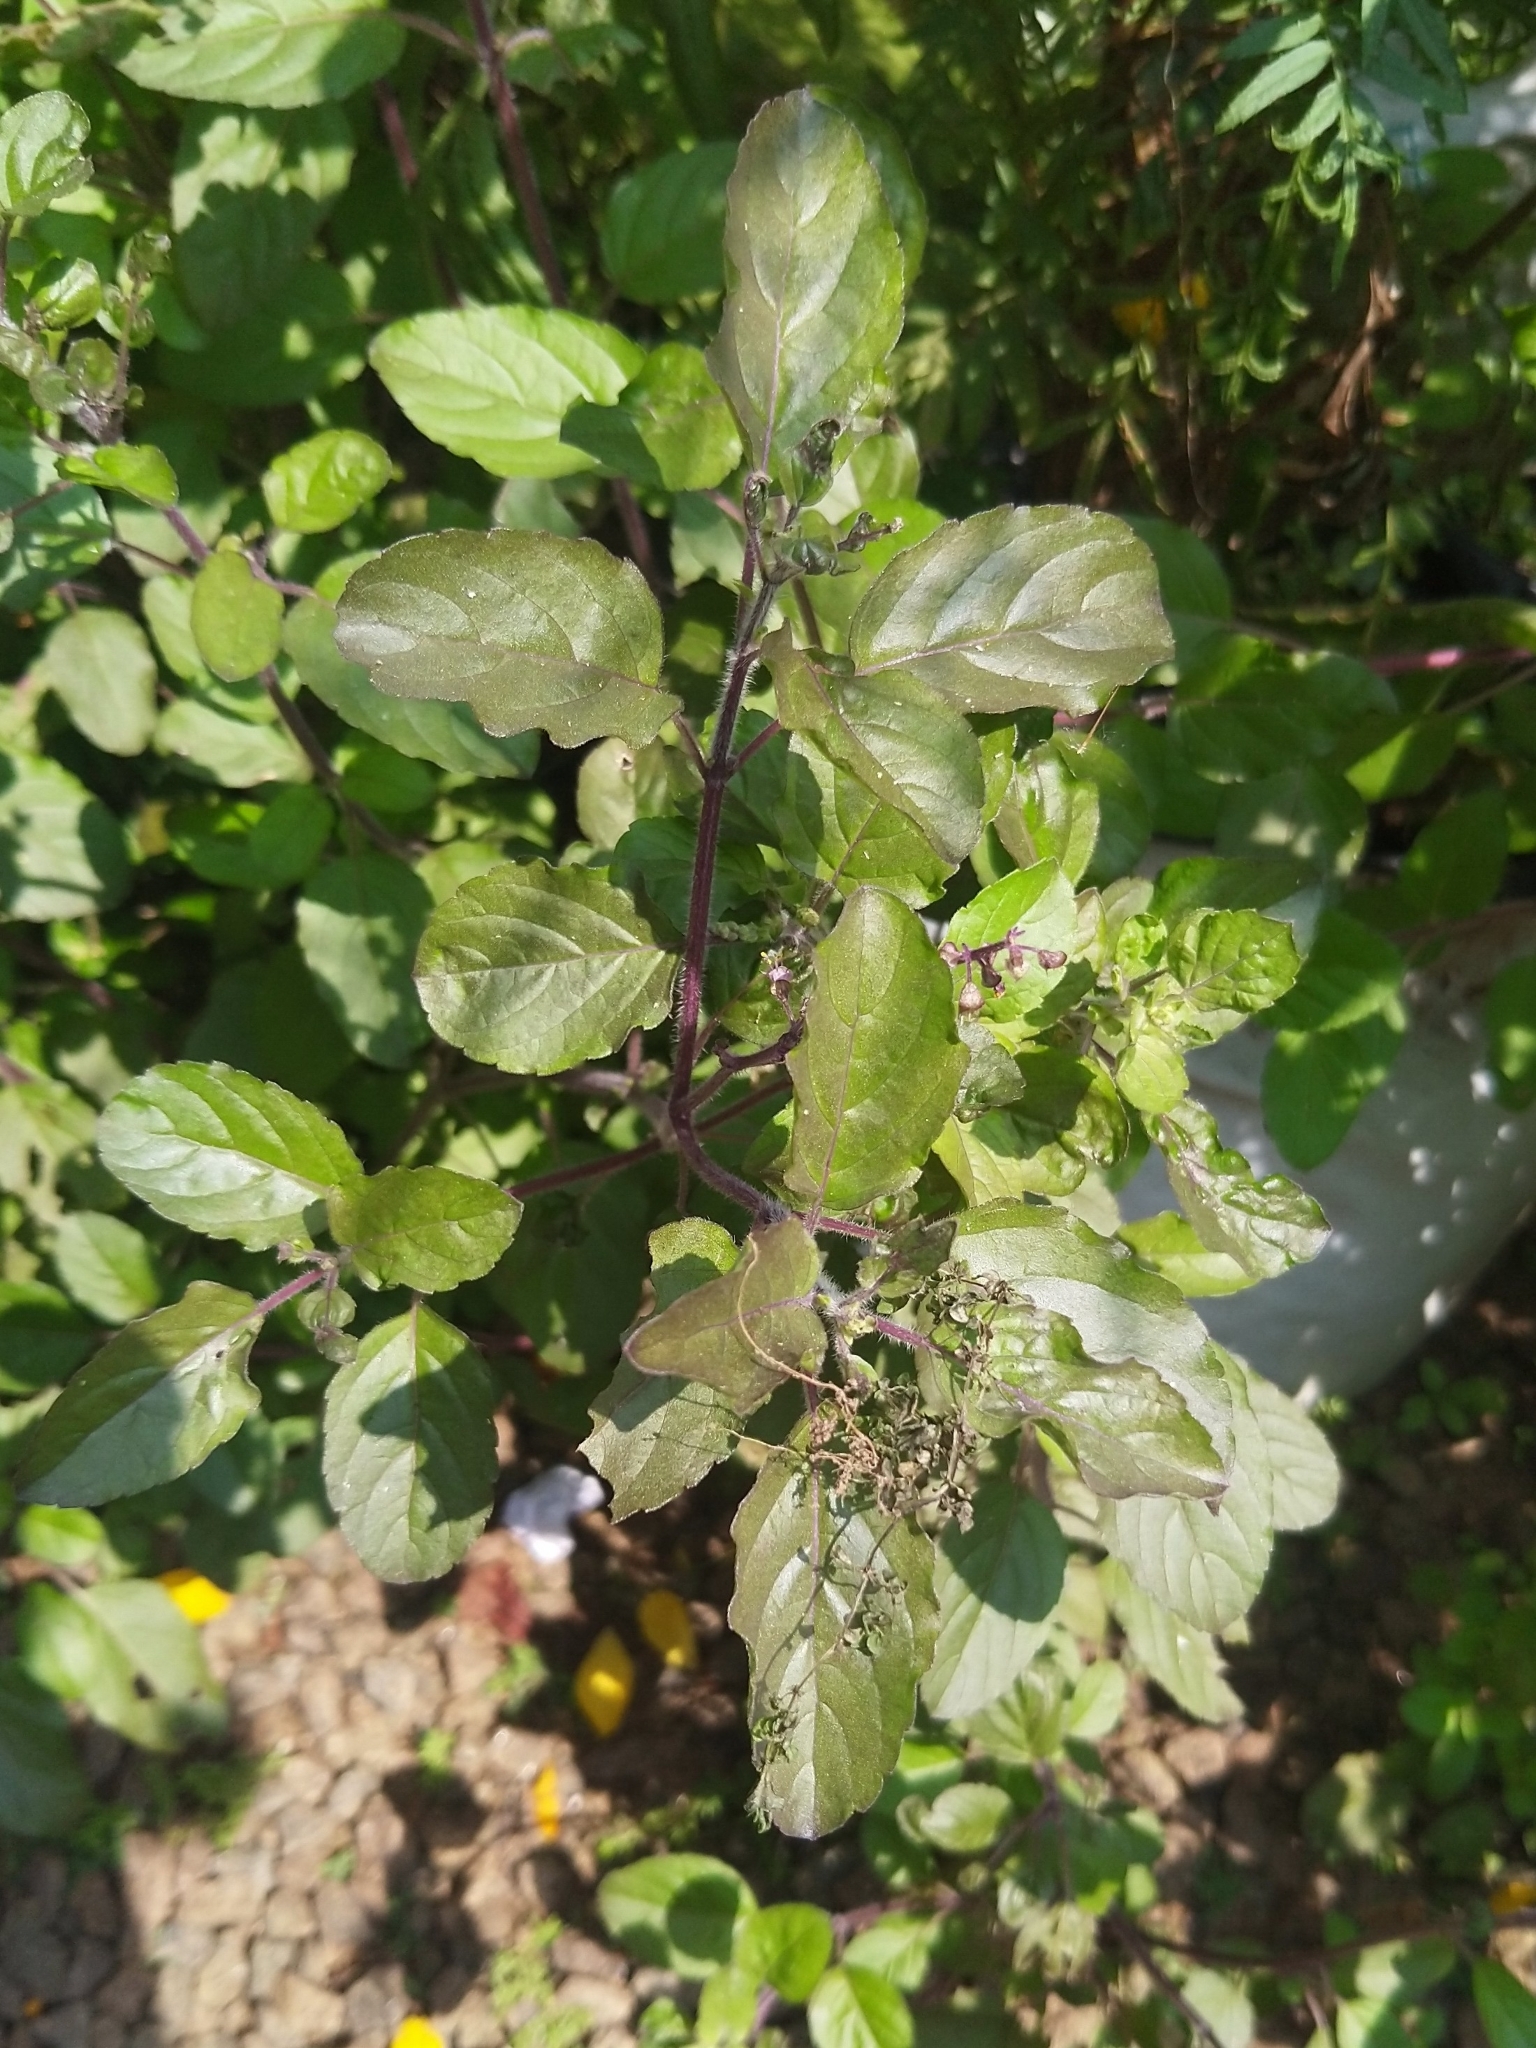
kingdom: Plantae
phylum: Tracheophyta
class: Magnoliopsida
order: Lamiales
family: Lamiaceae
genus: Ocimum
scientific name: Ocimum tenuiflorum
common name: Sacred basil
